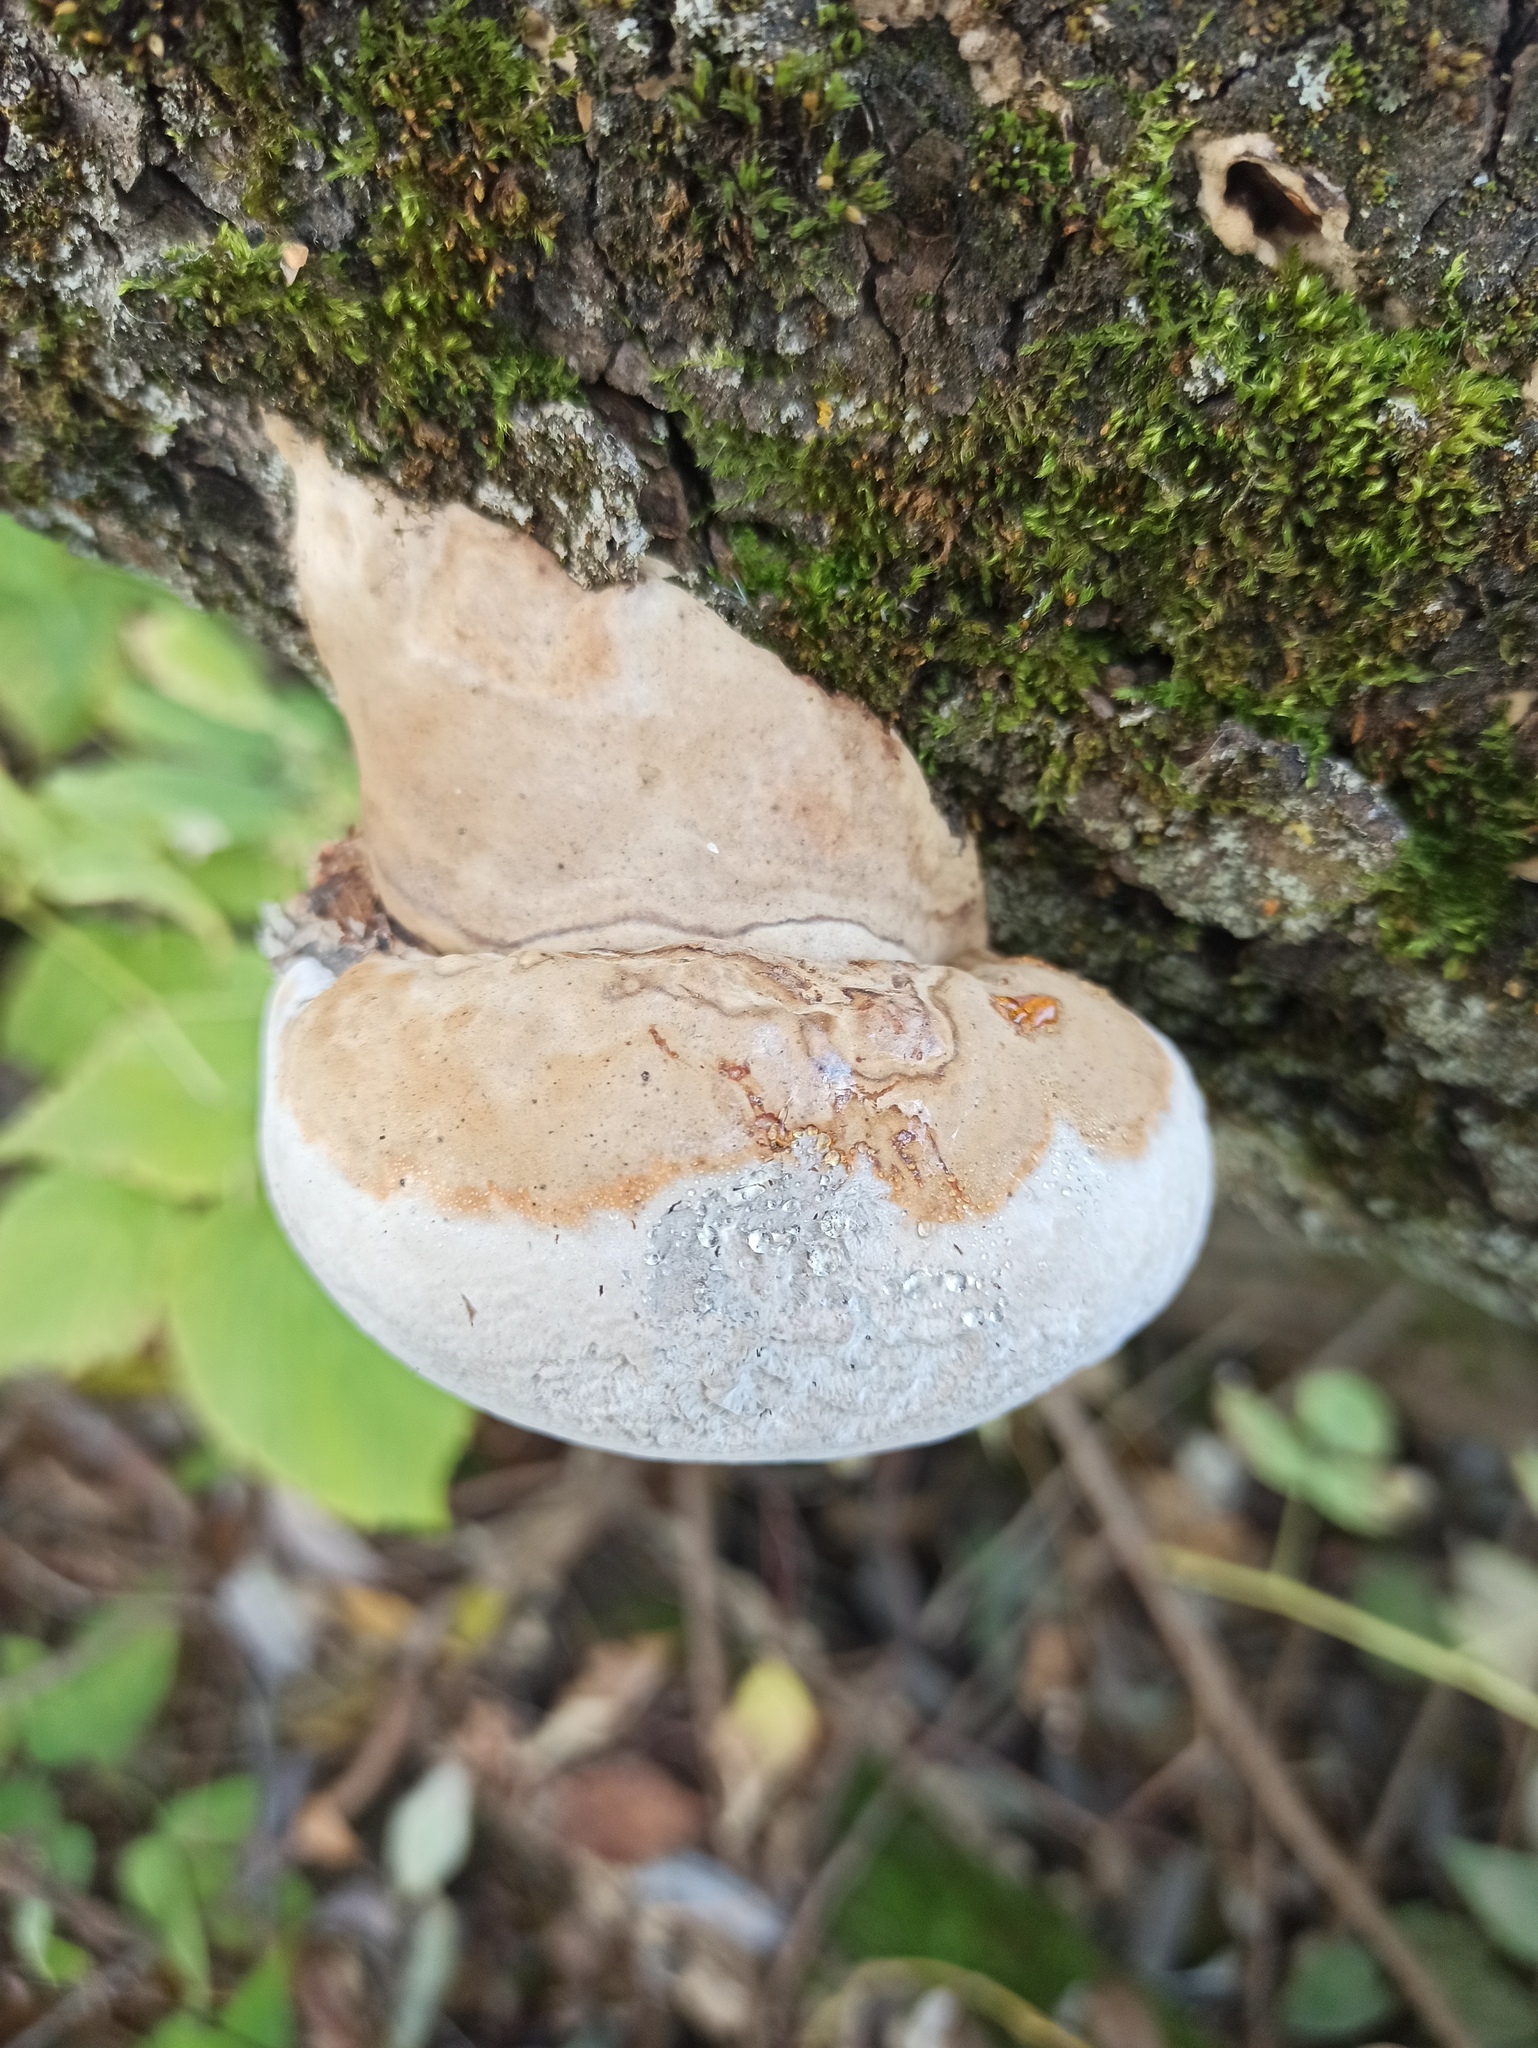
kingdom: Fungi
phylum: Basidiomycota
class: Agaricomycetes
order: Polyporales
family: Polyporaceae
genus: Fomes
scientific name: Fomes fomentarius
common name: Hoof fungus
